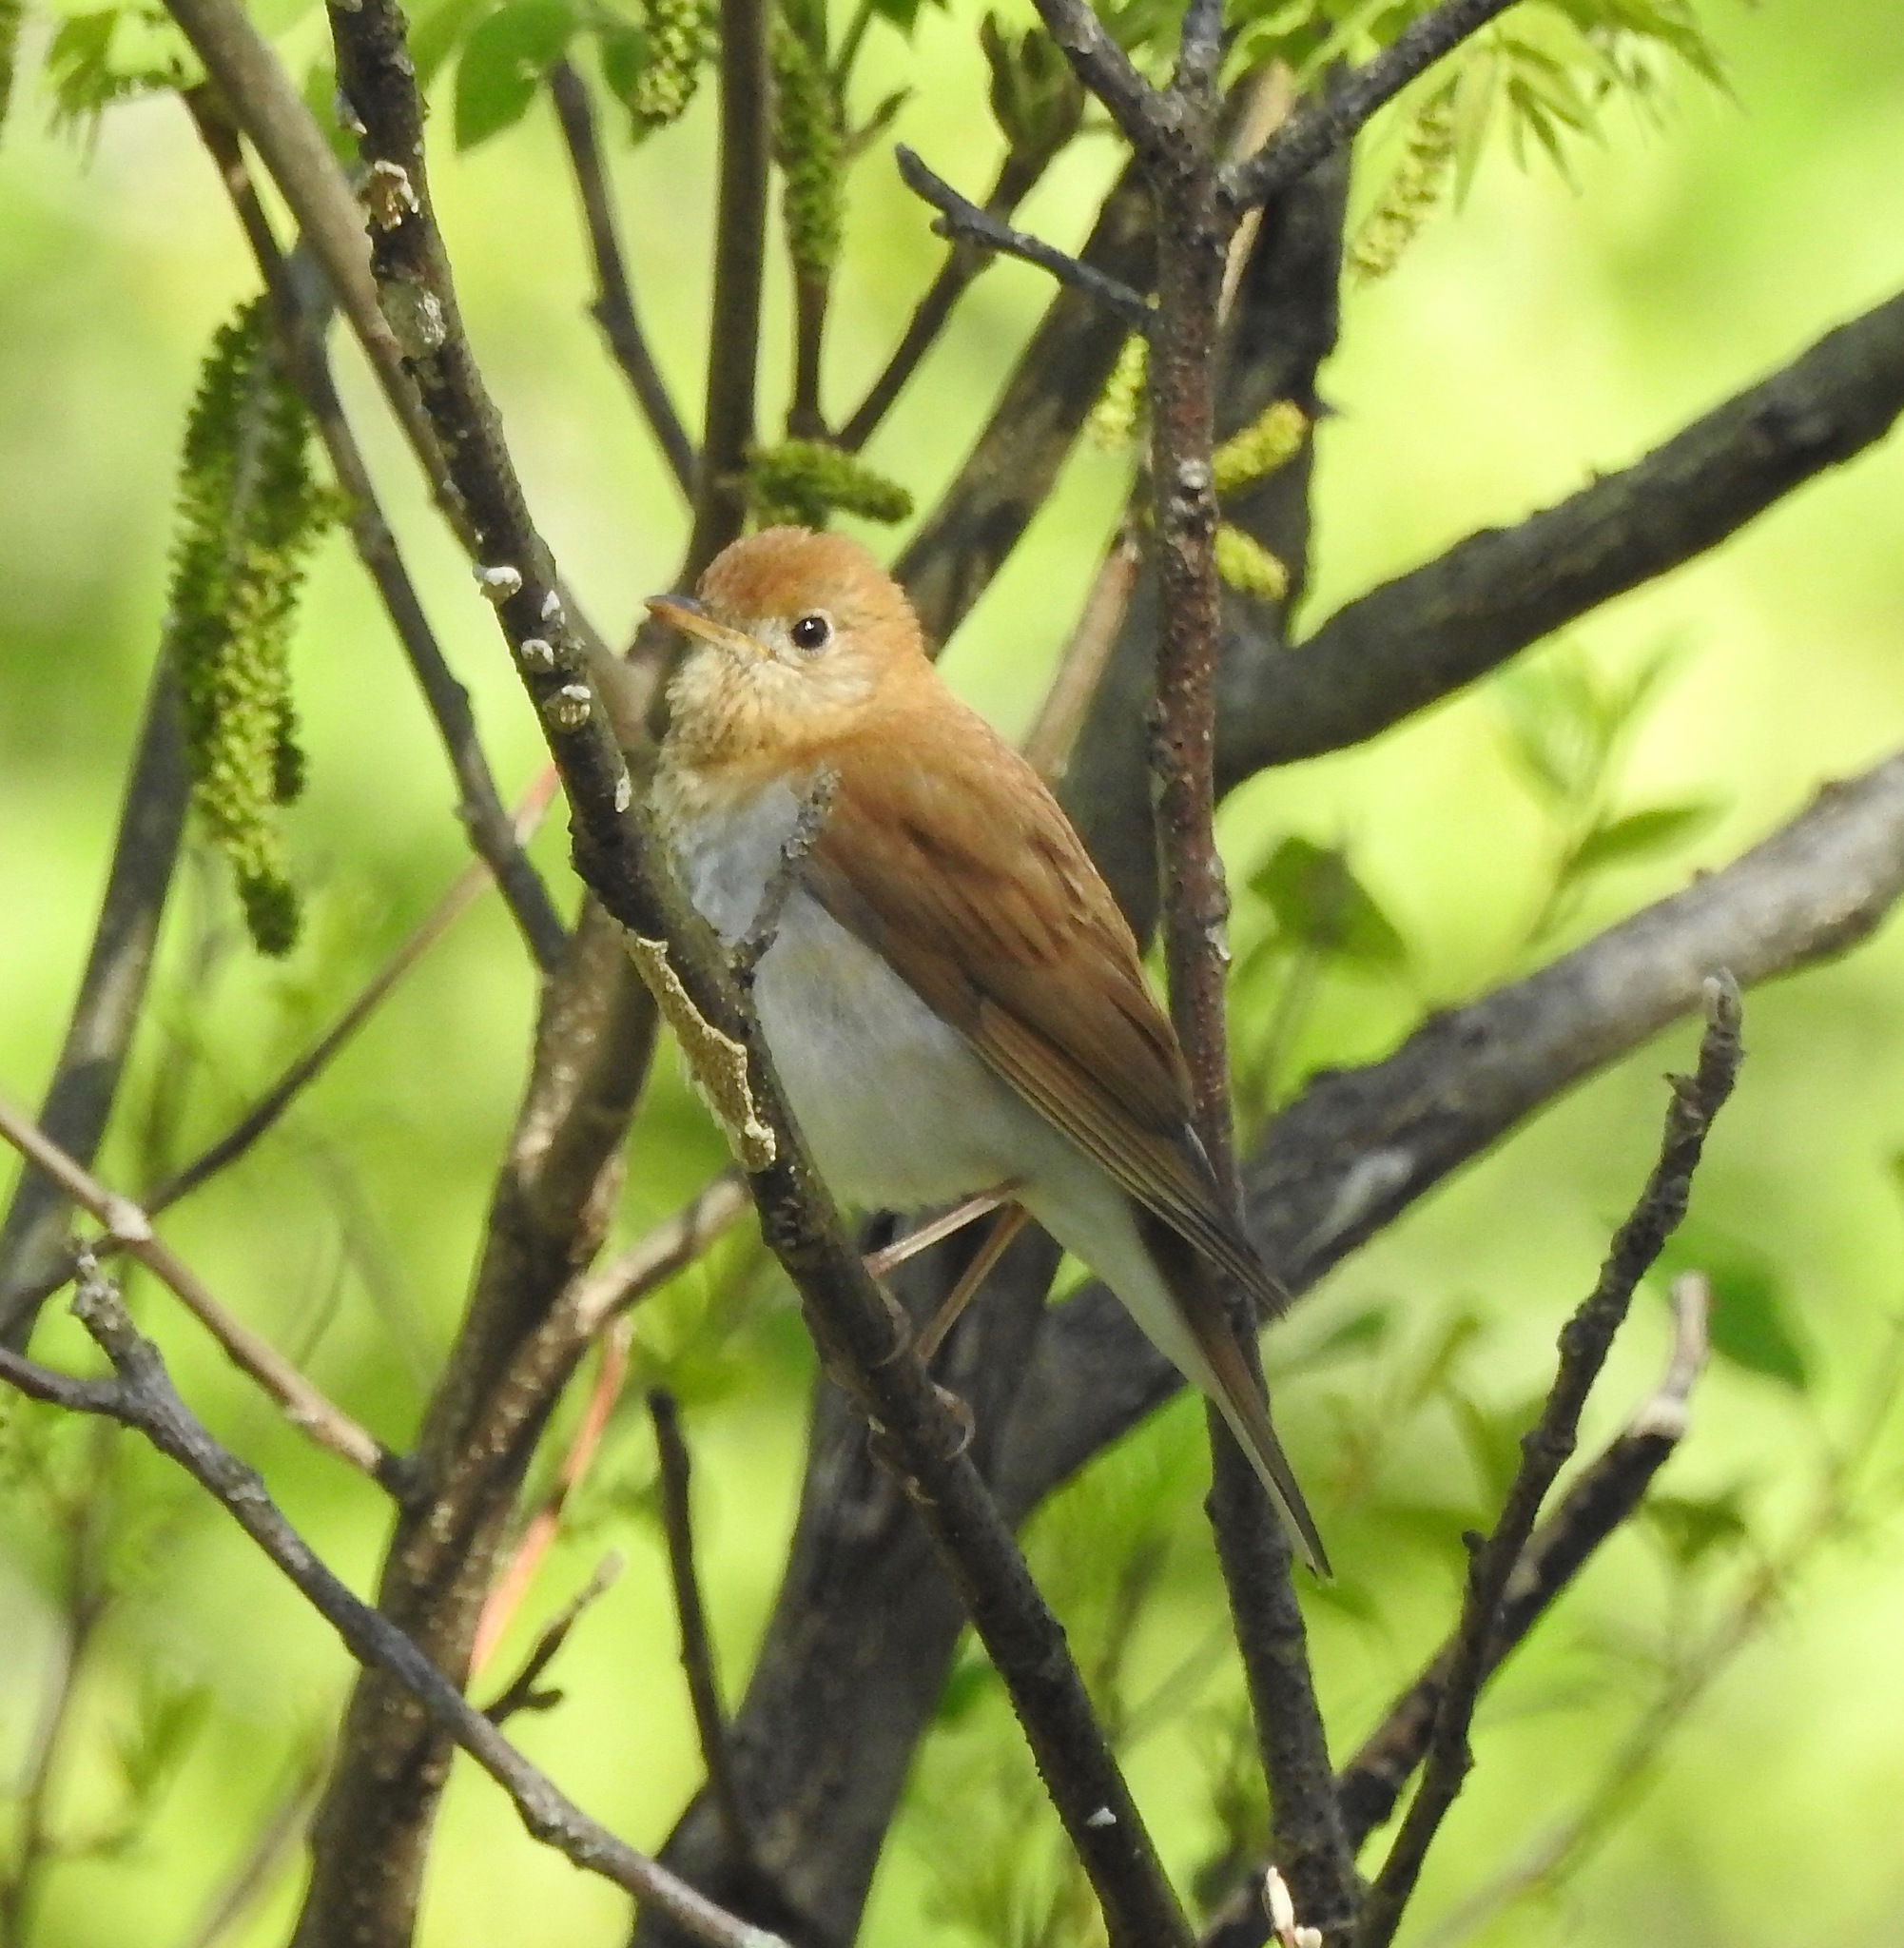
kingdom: Animalia
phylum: Chordata
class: Aves
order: Passeriformes
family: Turdidae
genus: Catharus
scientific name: Catharus fuscescens
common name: Veery
